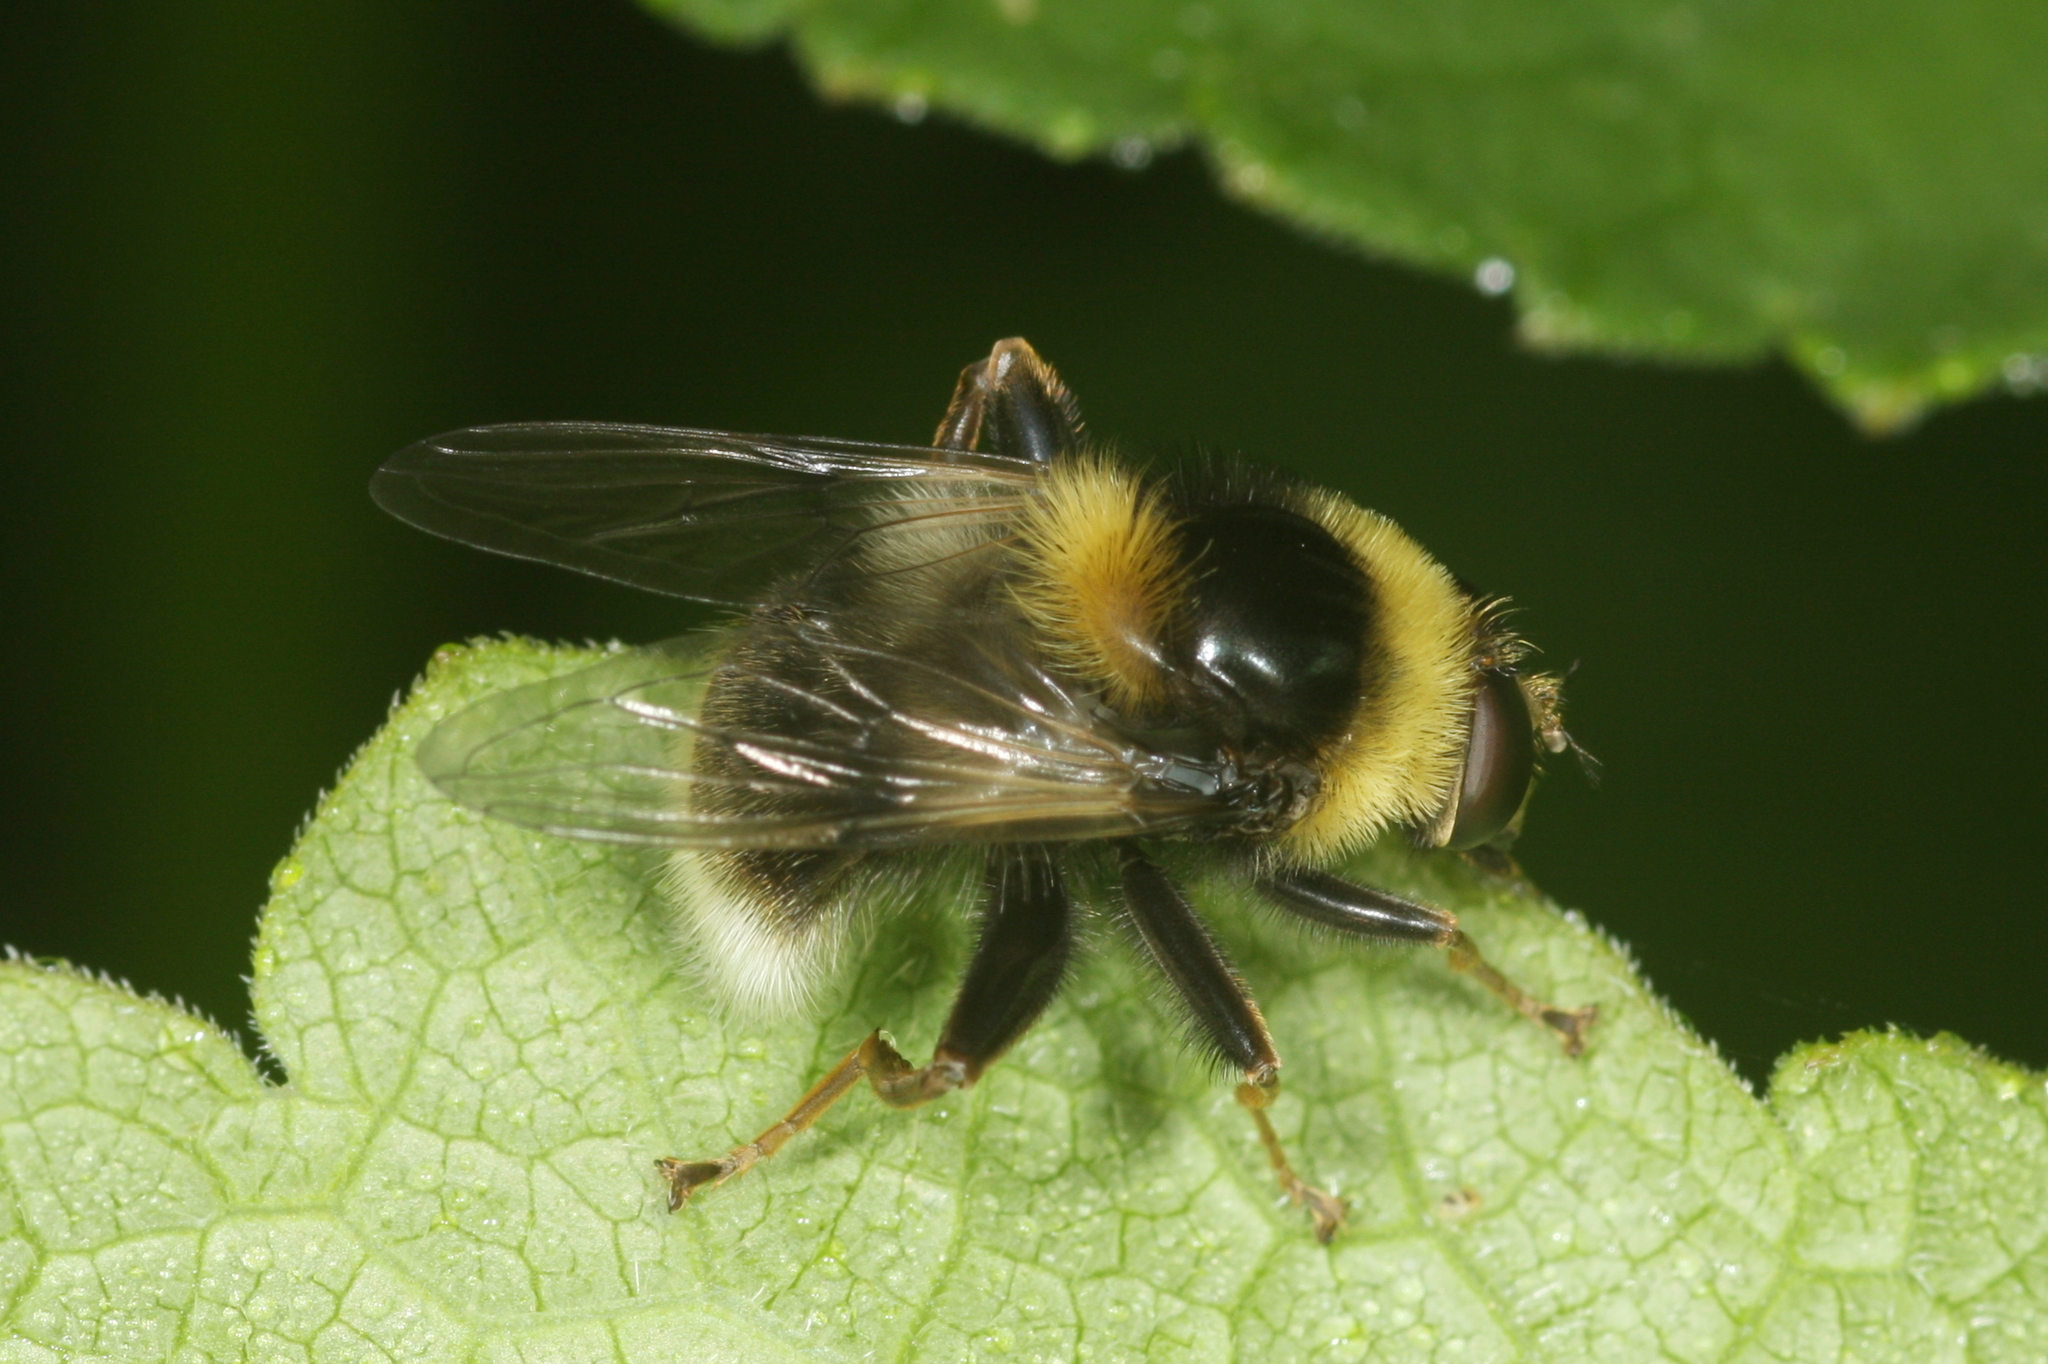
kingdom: Animalia
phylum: Arthropoda
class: Insecta
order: Diptera
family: Syrphidae
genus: Sericomyia
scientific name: Sericomyia bombiformis
